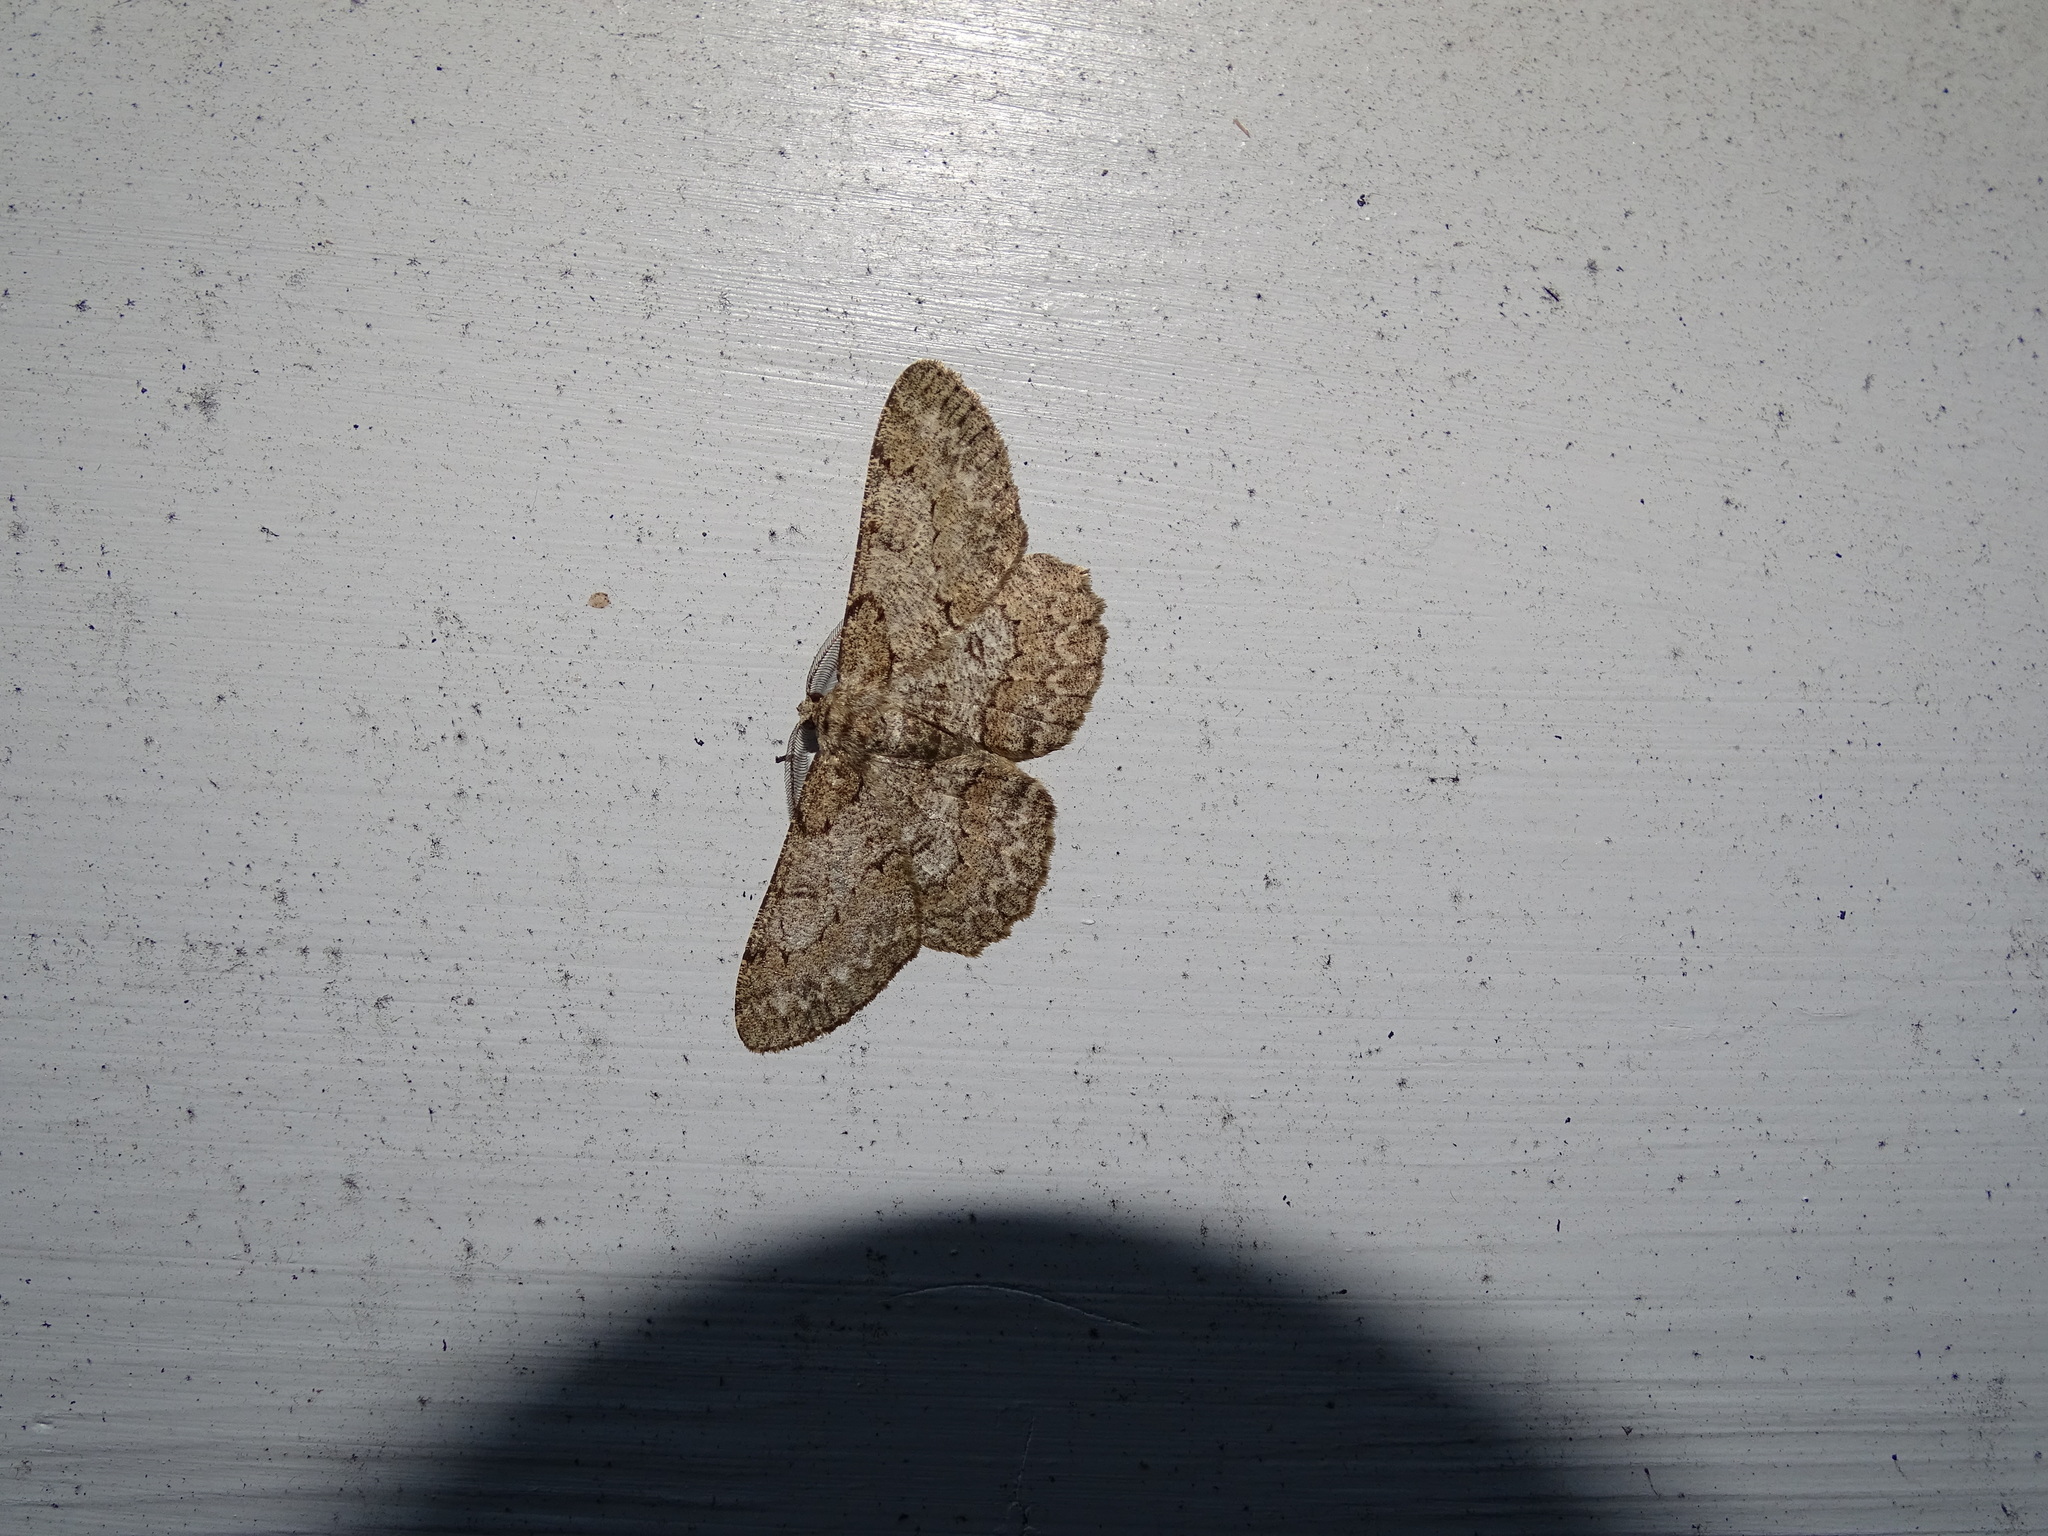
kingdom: Animalia
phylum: Arthropoda
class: Insecta
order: Lepidoptera
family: Geometridae
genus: Hypomecis
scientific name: Hypomecis punctinalis
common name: Pale oak beauty
